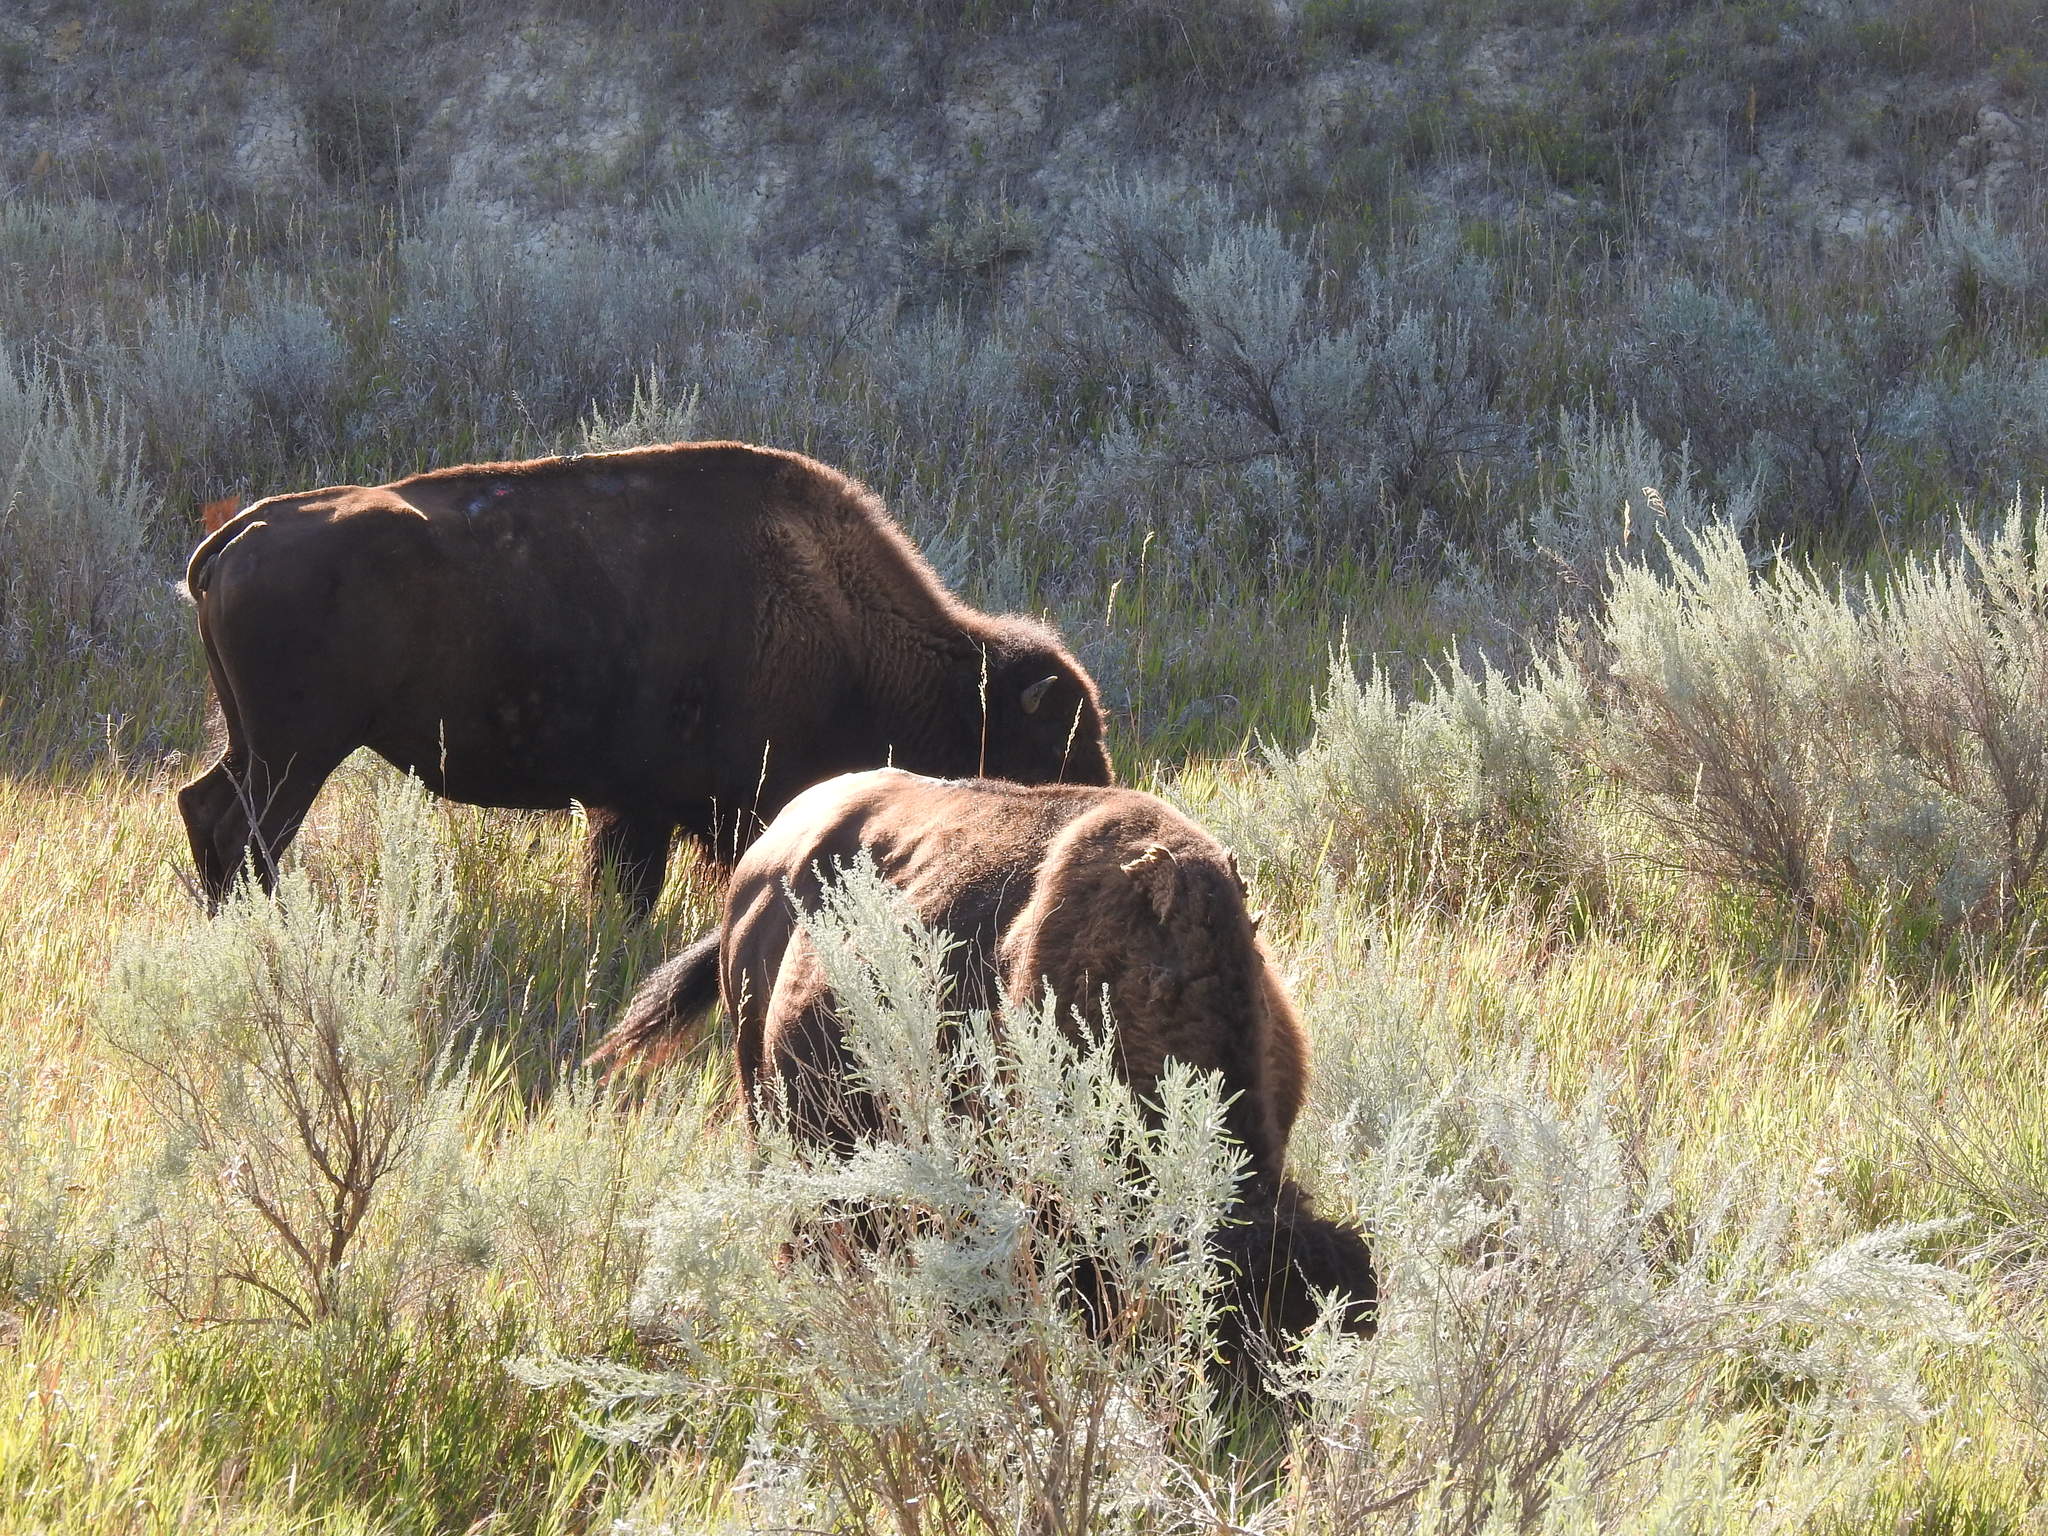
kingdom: Animalia
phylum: Chordata
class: Mammalia
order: Artiodactyla
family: Bovidae
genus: Bison
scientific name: Bison bison
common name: American bison
